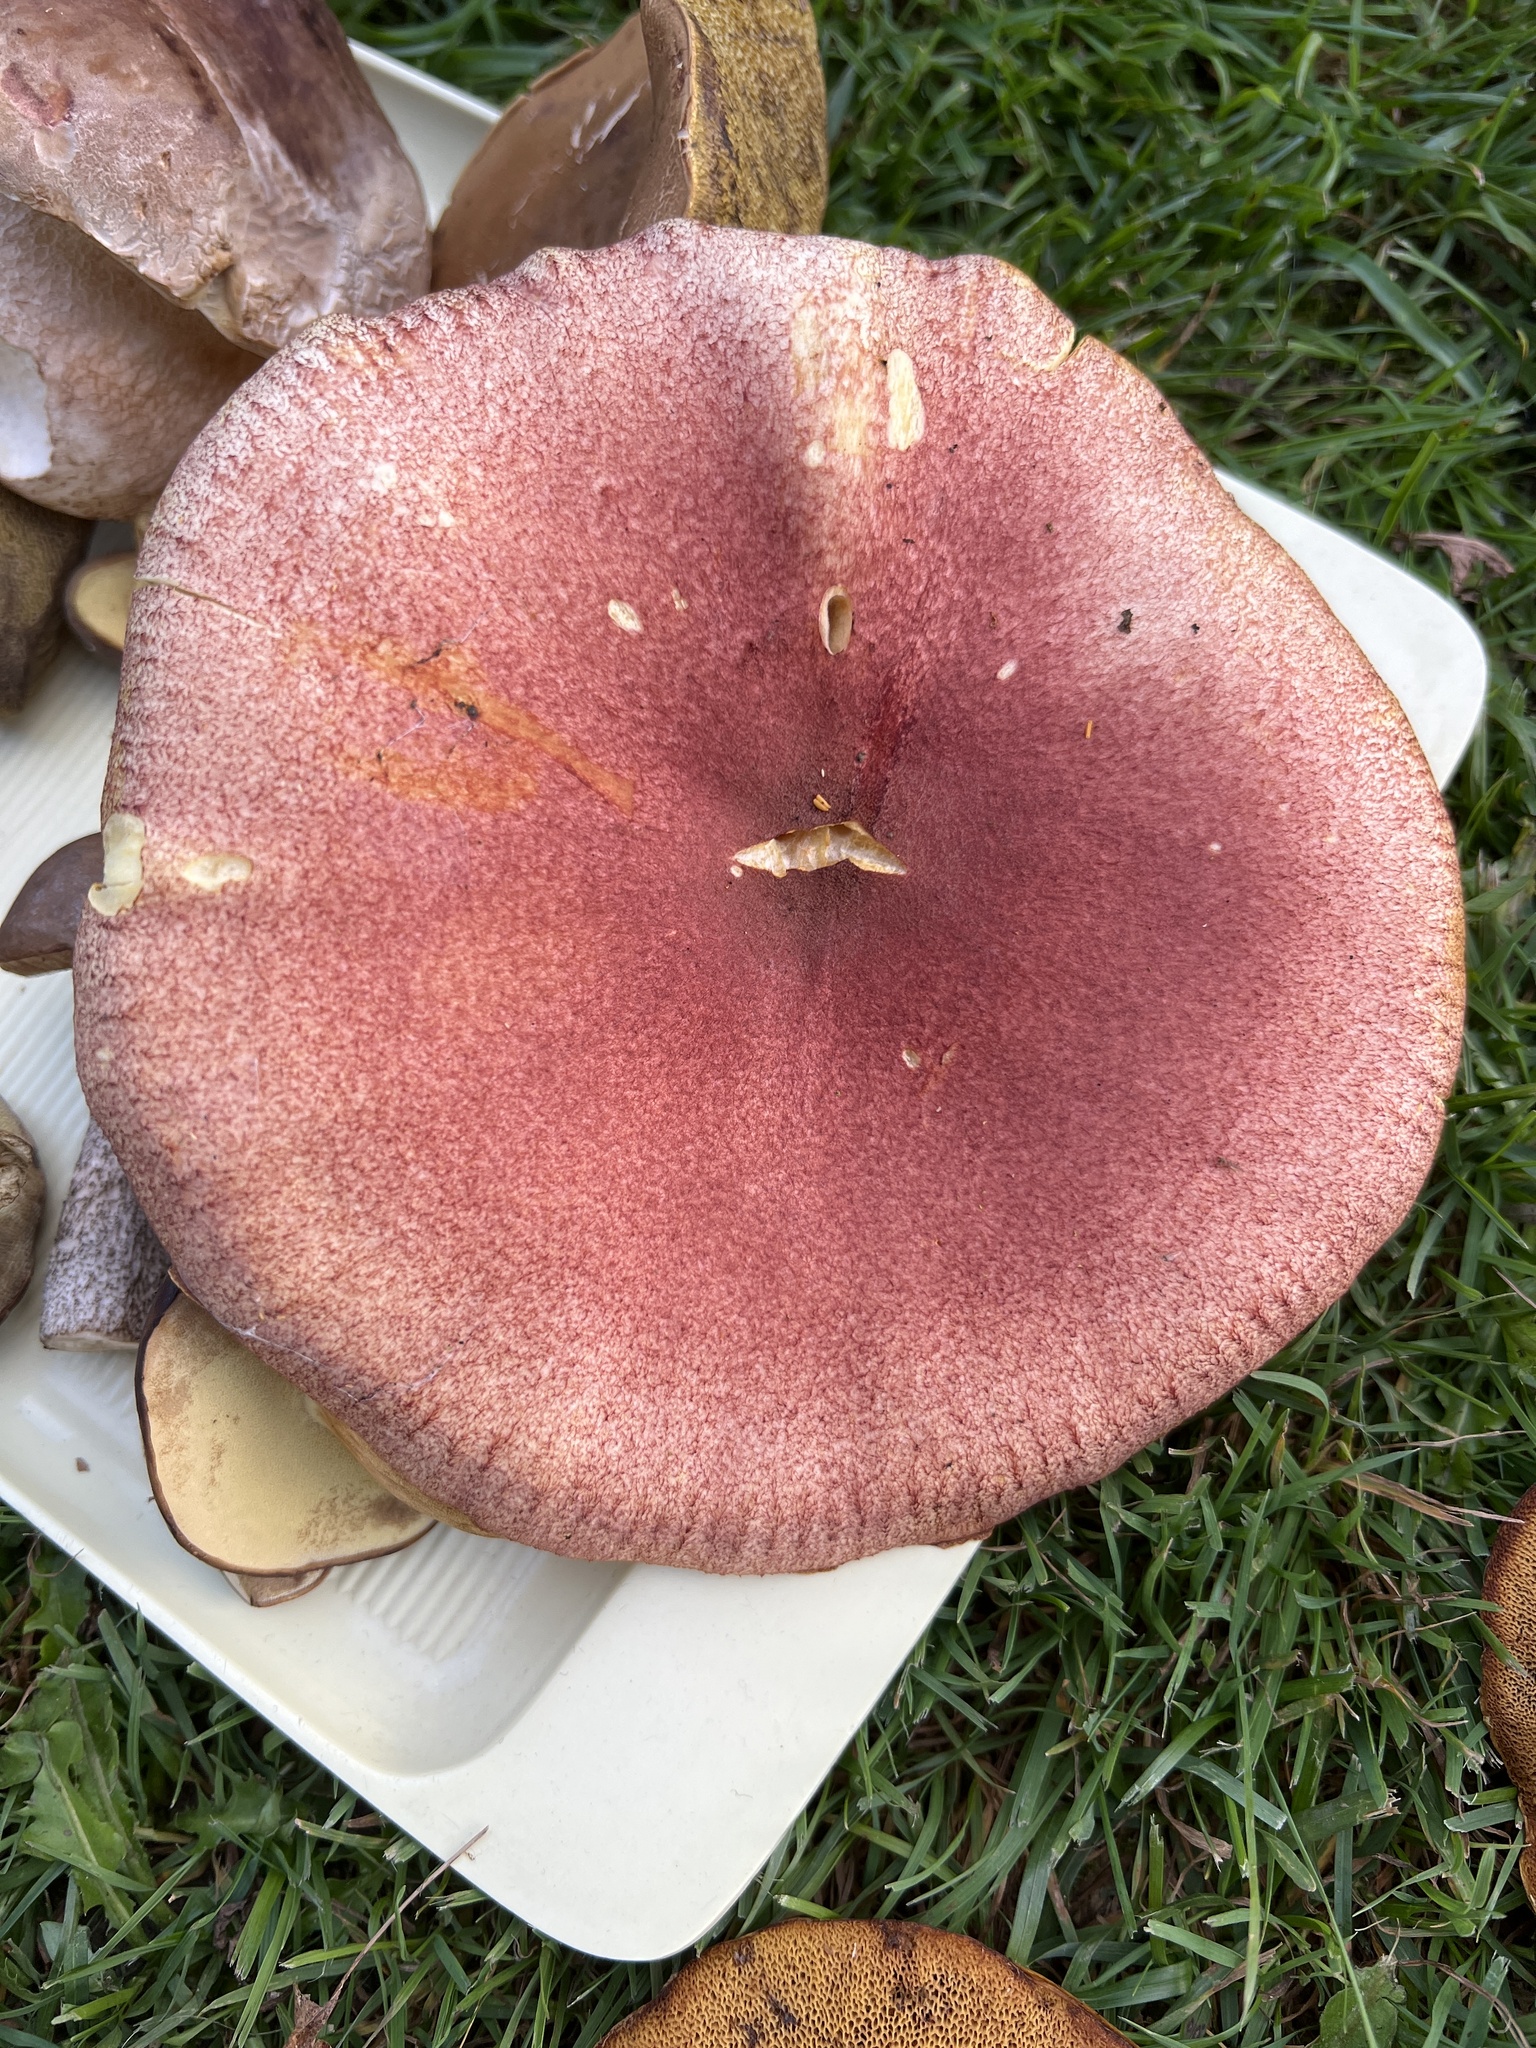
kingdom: Fungi
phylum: Basidiomycota
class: Agaricomycetes
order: Agaricales
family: Tricholomataceae
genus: Tricholomopsis
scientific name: Tricholomopsis rutilans
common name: Plums and custard
